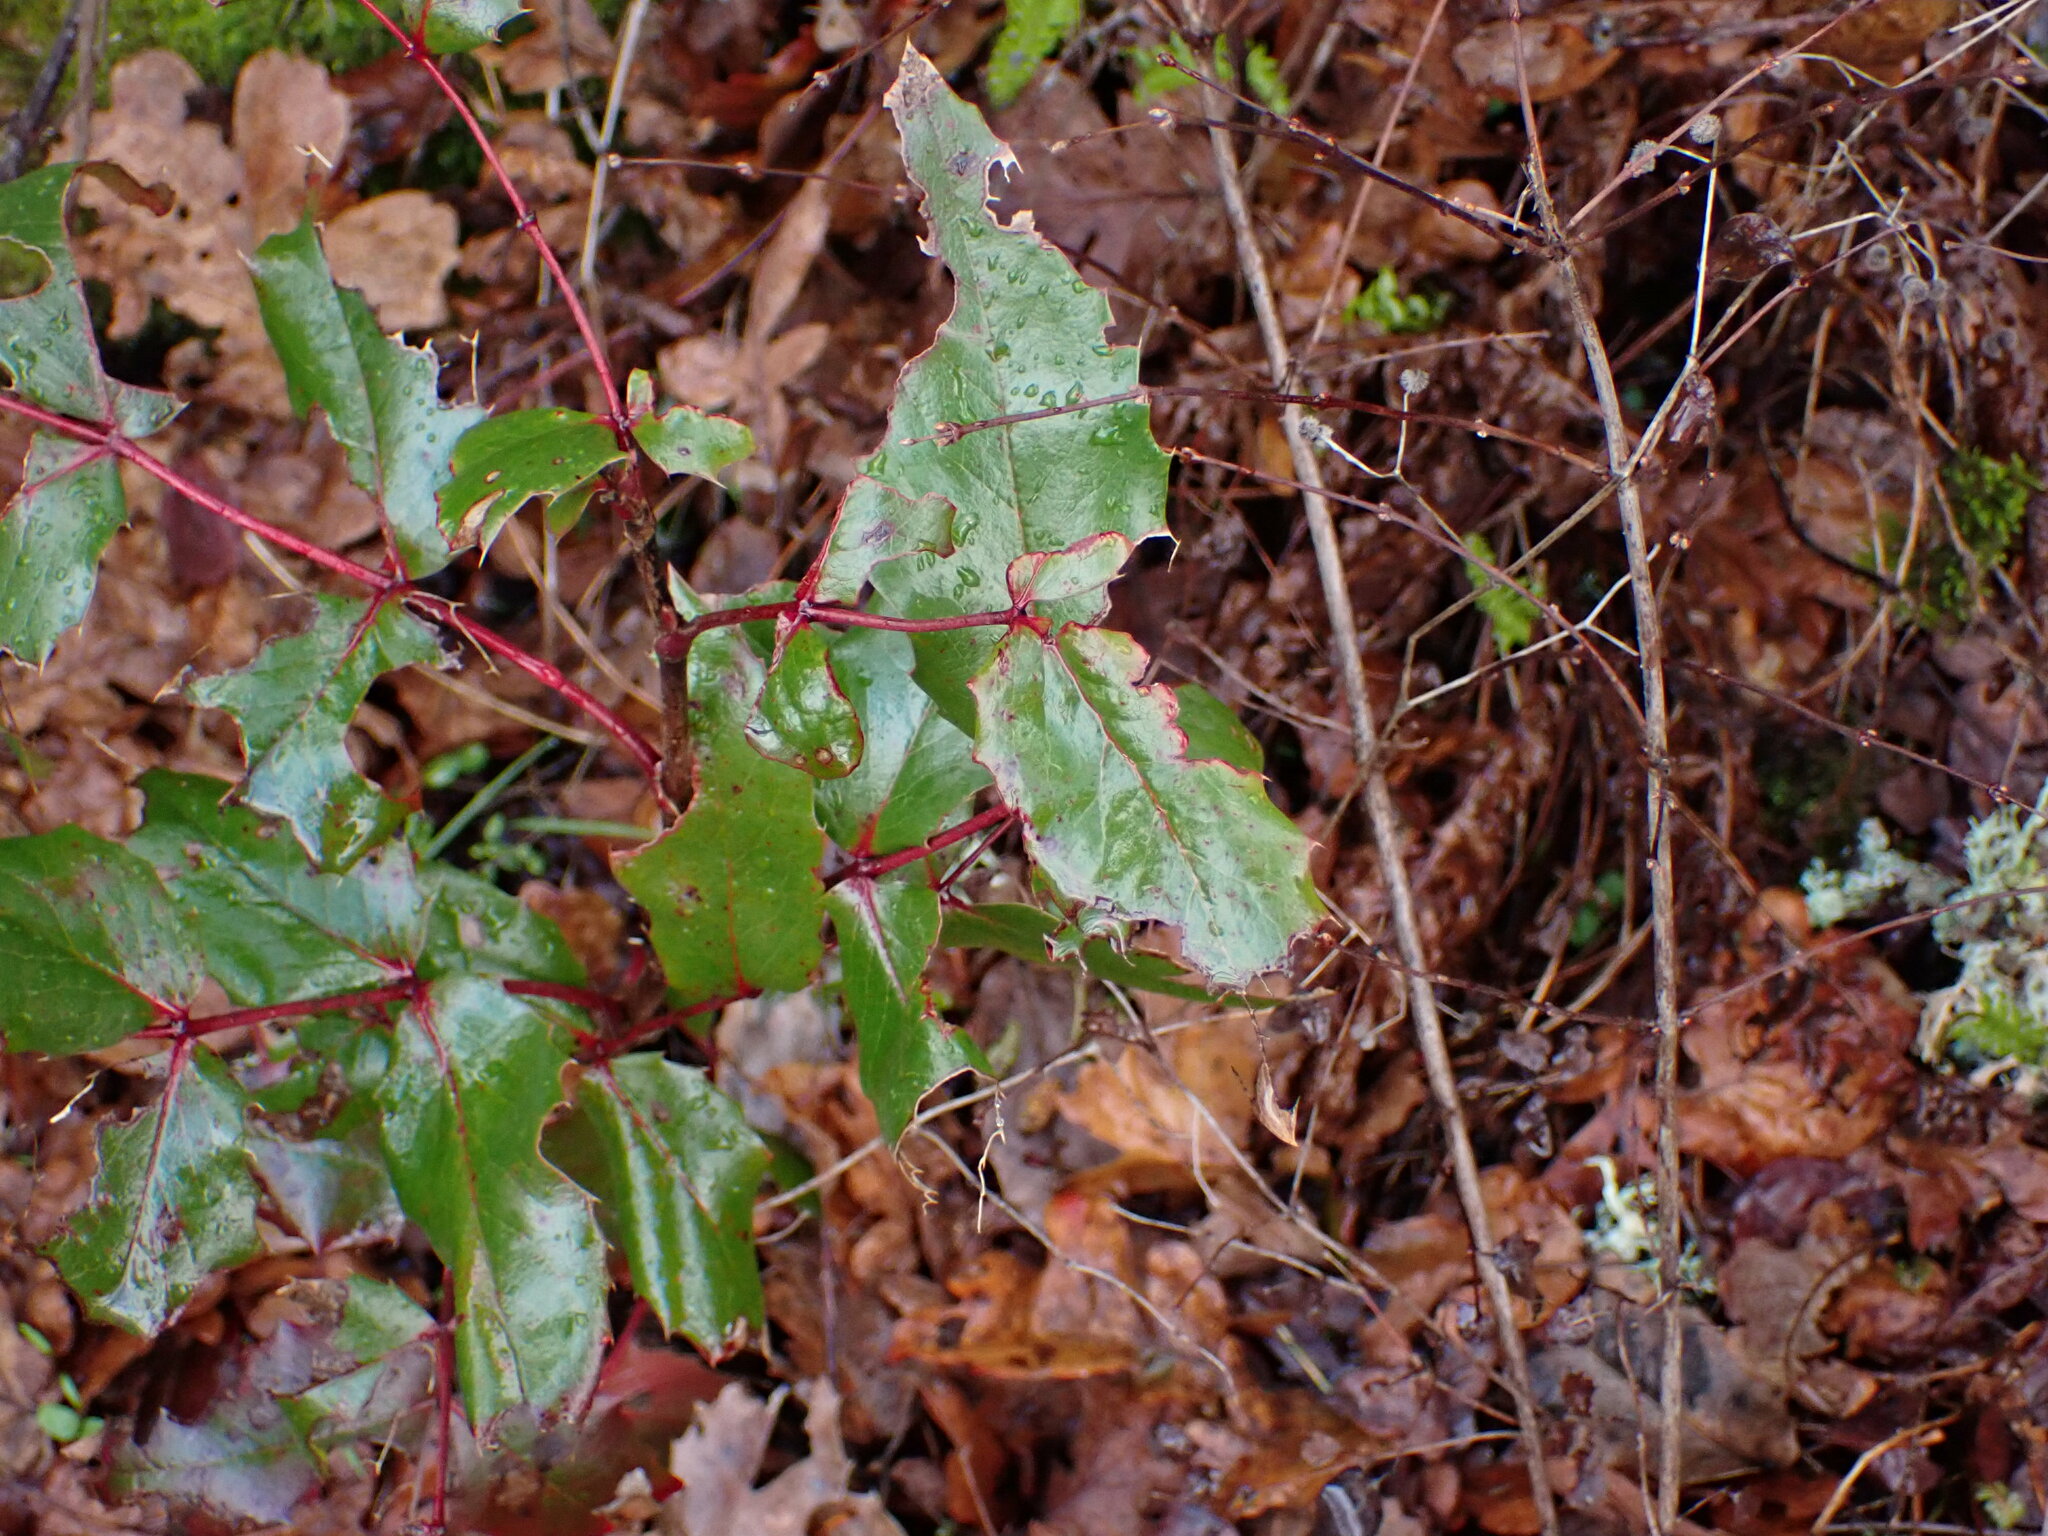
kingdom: Plantae
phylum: Tracheophyta
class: Magnoliopsida
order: Ranunculales
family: Berberidaceae
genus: Mahonia
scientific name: Mahonia aquifolium
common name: Oregon-grape
